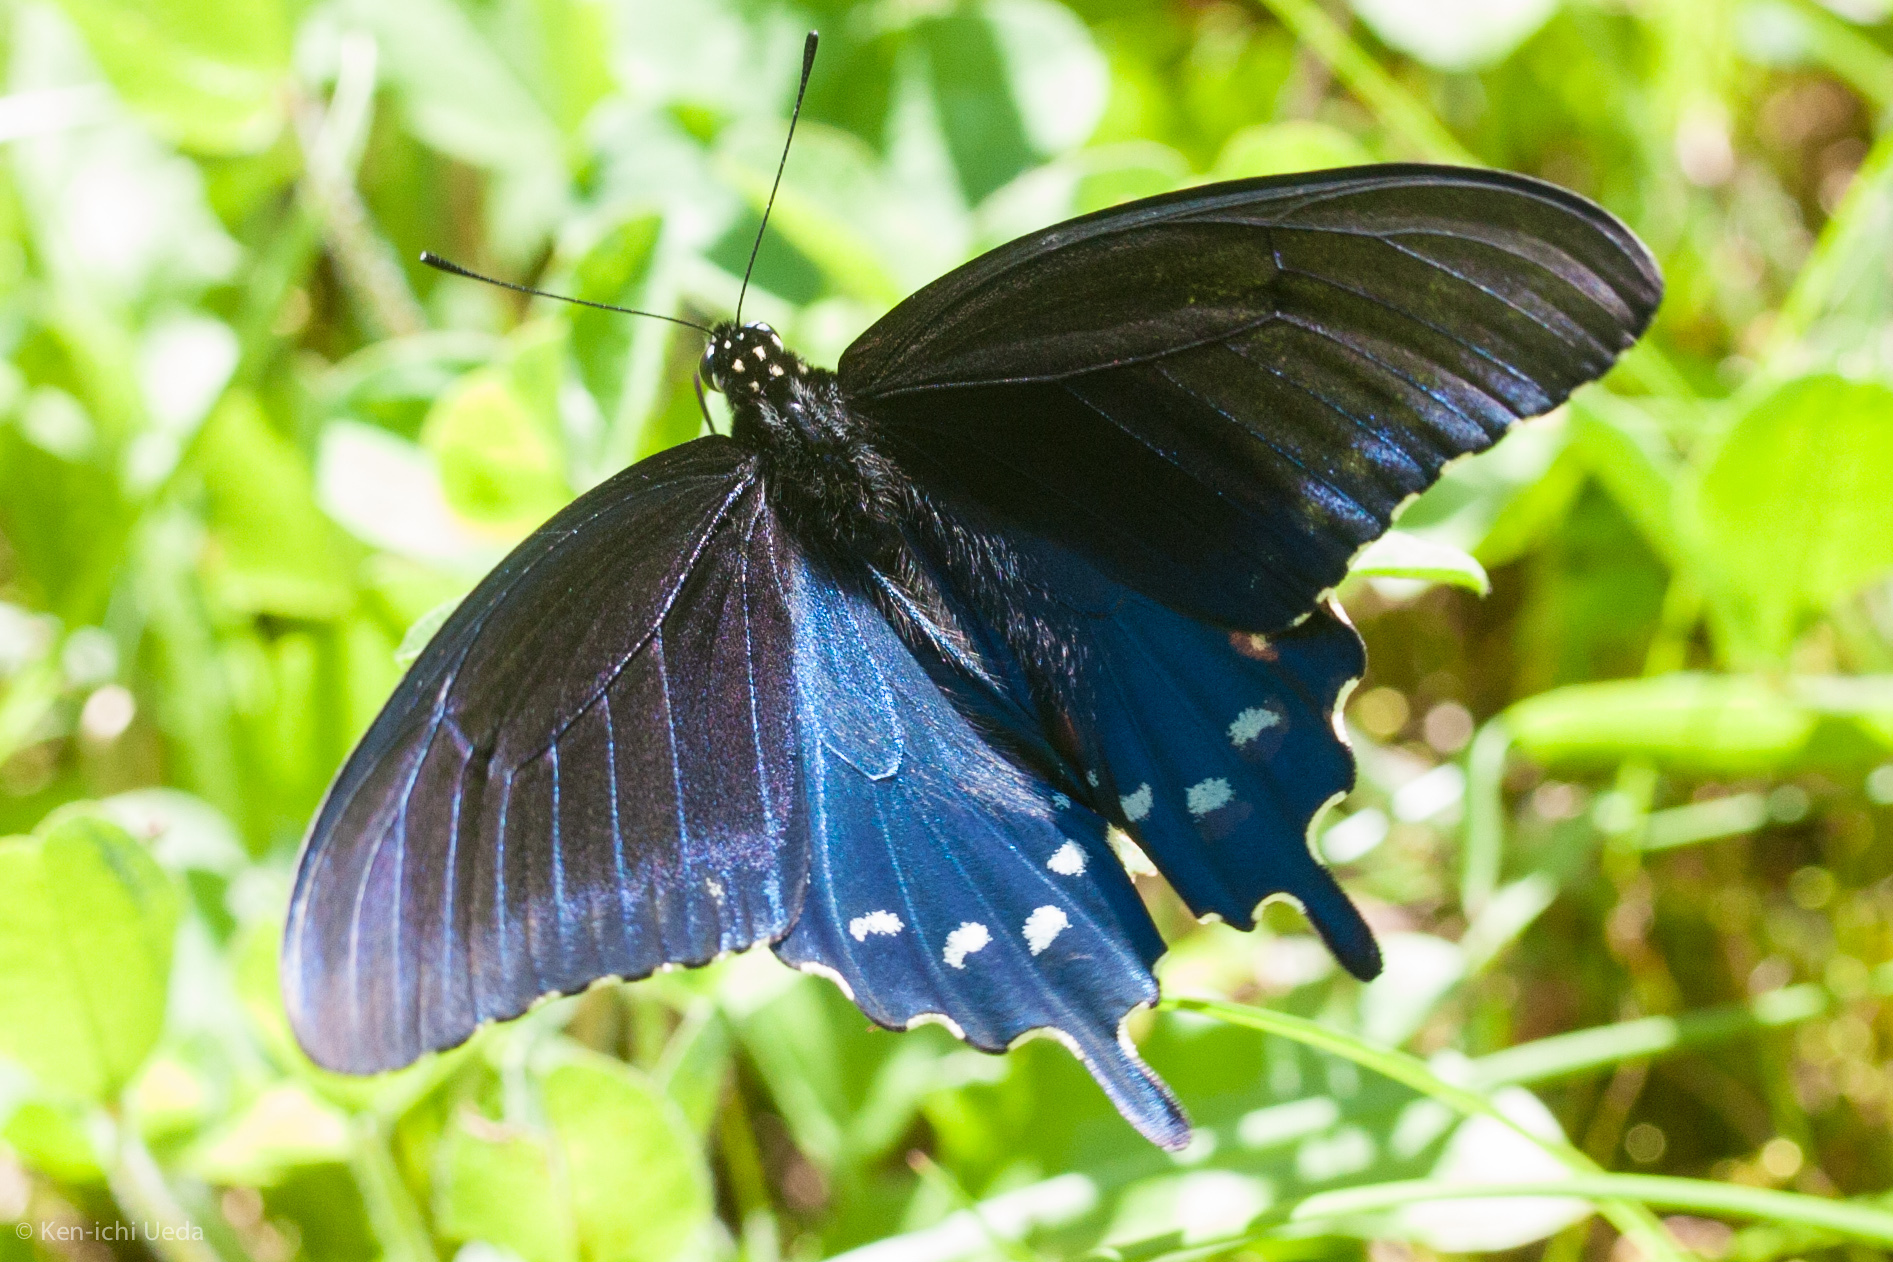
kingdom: Animalia
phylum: Arthropoda
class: Insecta
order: Lepidoptera
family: Papilionidae
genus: Battus
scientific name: Battus philenor
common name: Pipevine swallowtail
